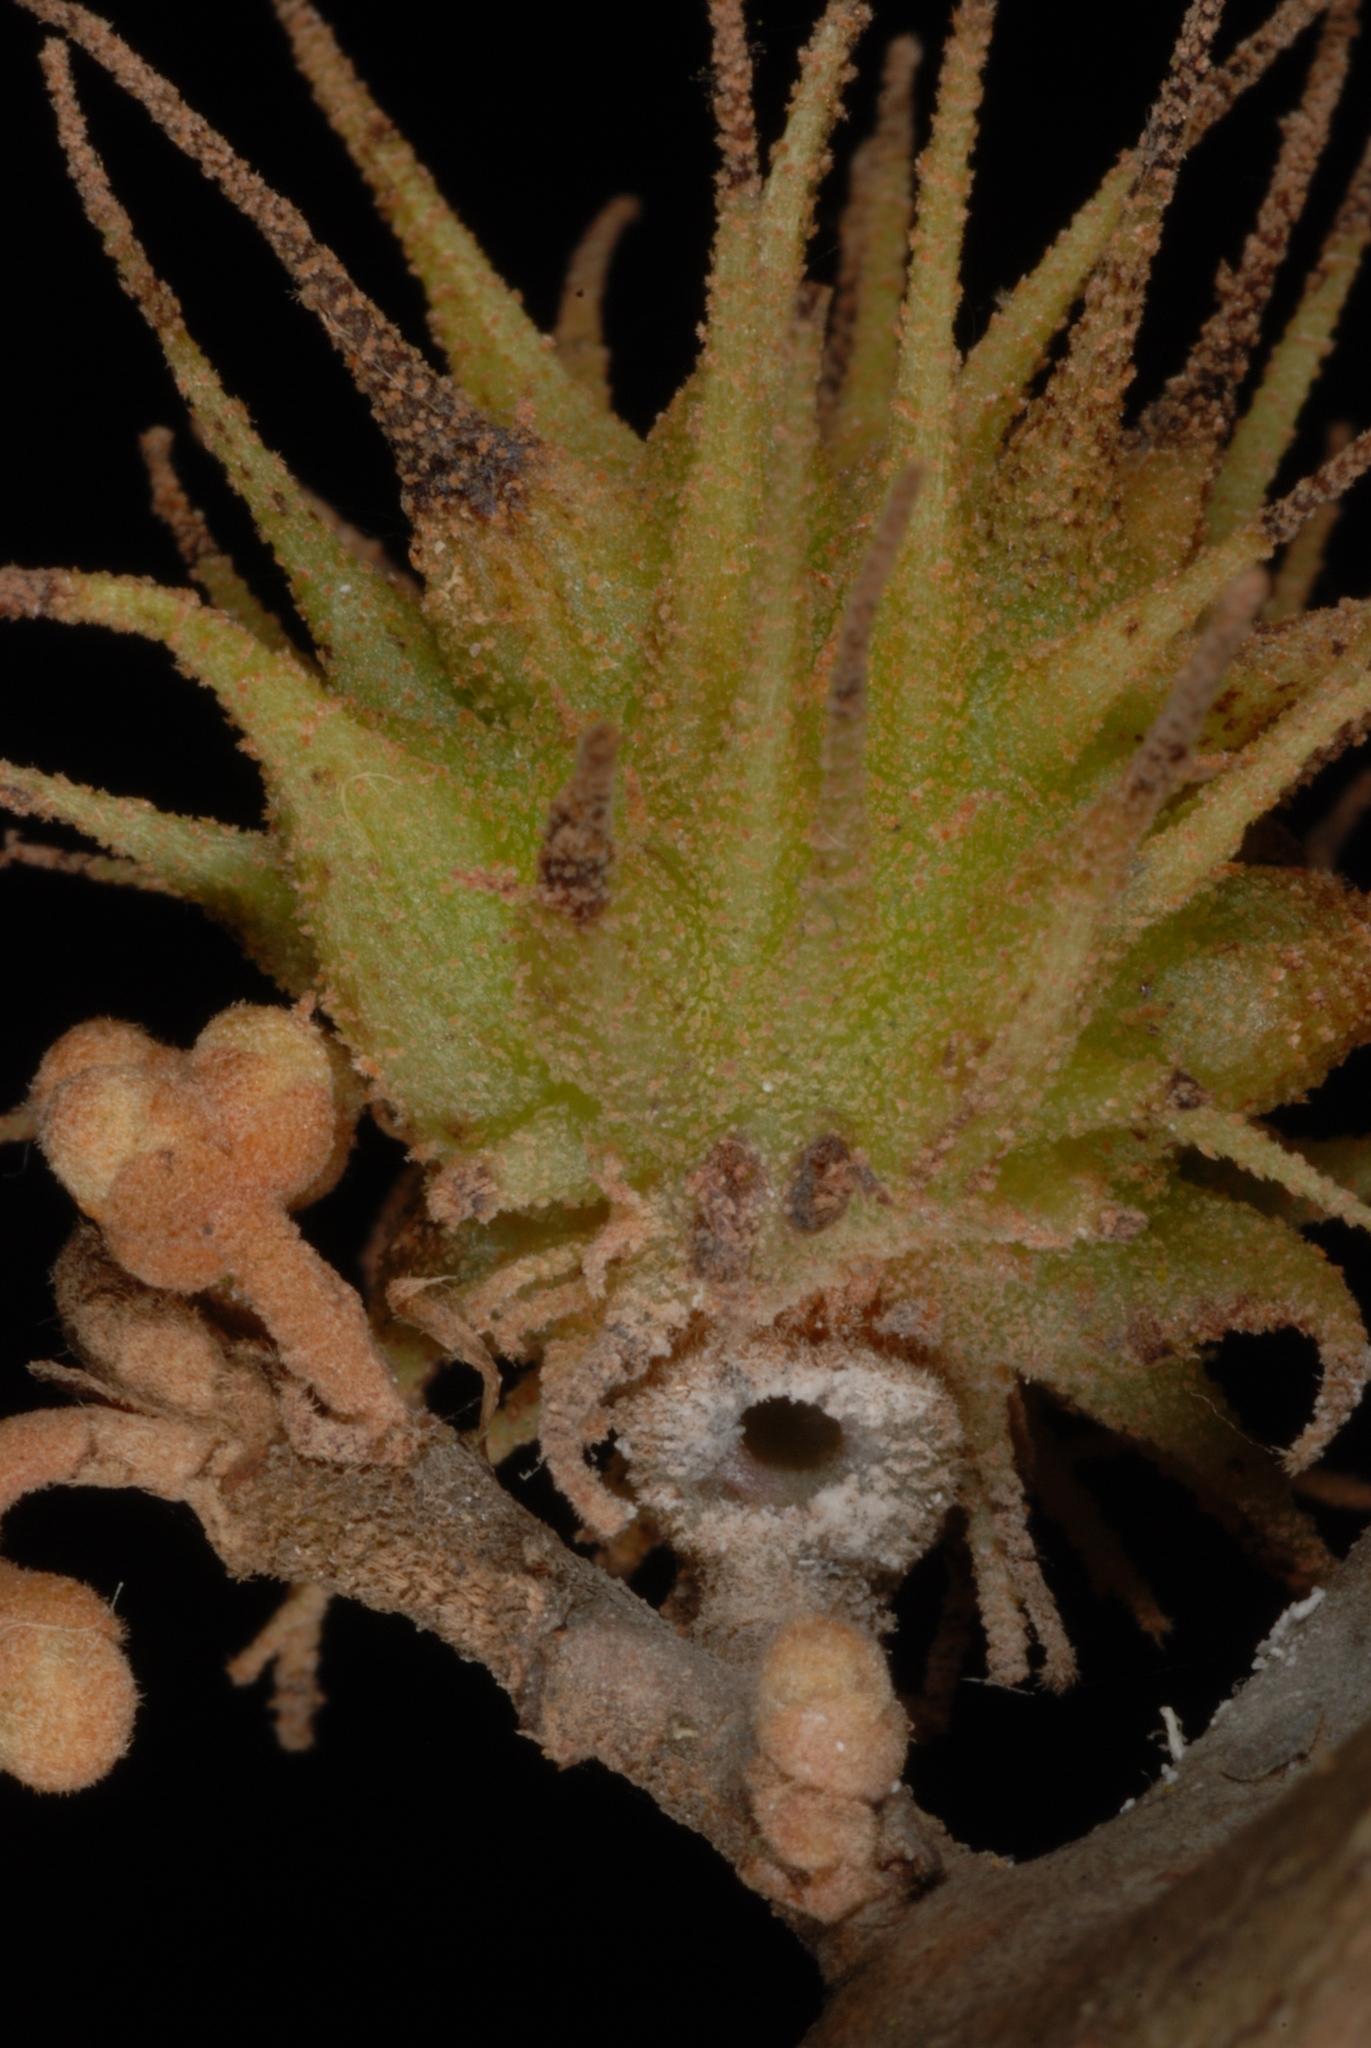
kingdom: Animalia
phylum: Arthropoda
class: Insecta
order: Hemiptera
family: Aphididae
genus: Hamamelistes
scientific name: Hamamelistes spinosus
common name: Witch hazel gall aphid
